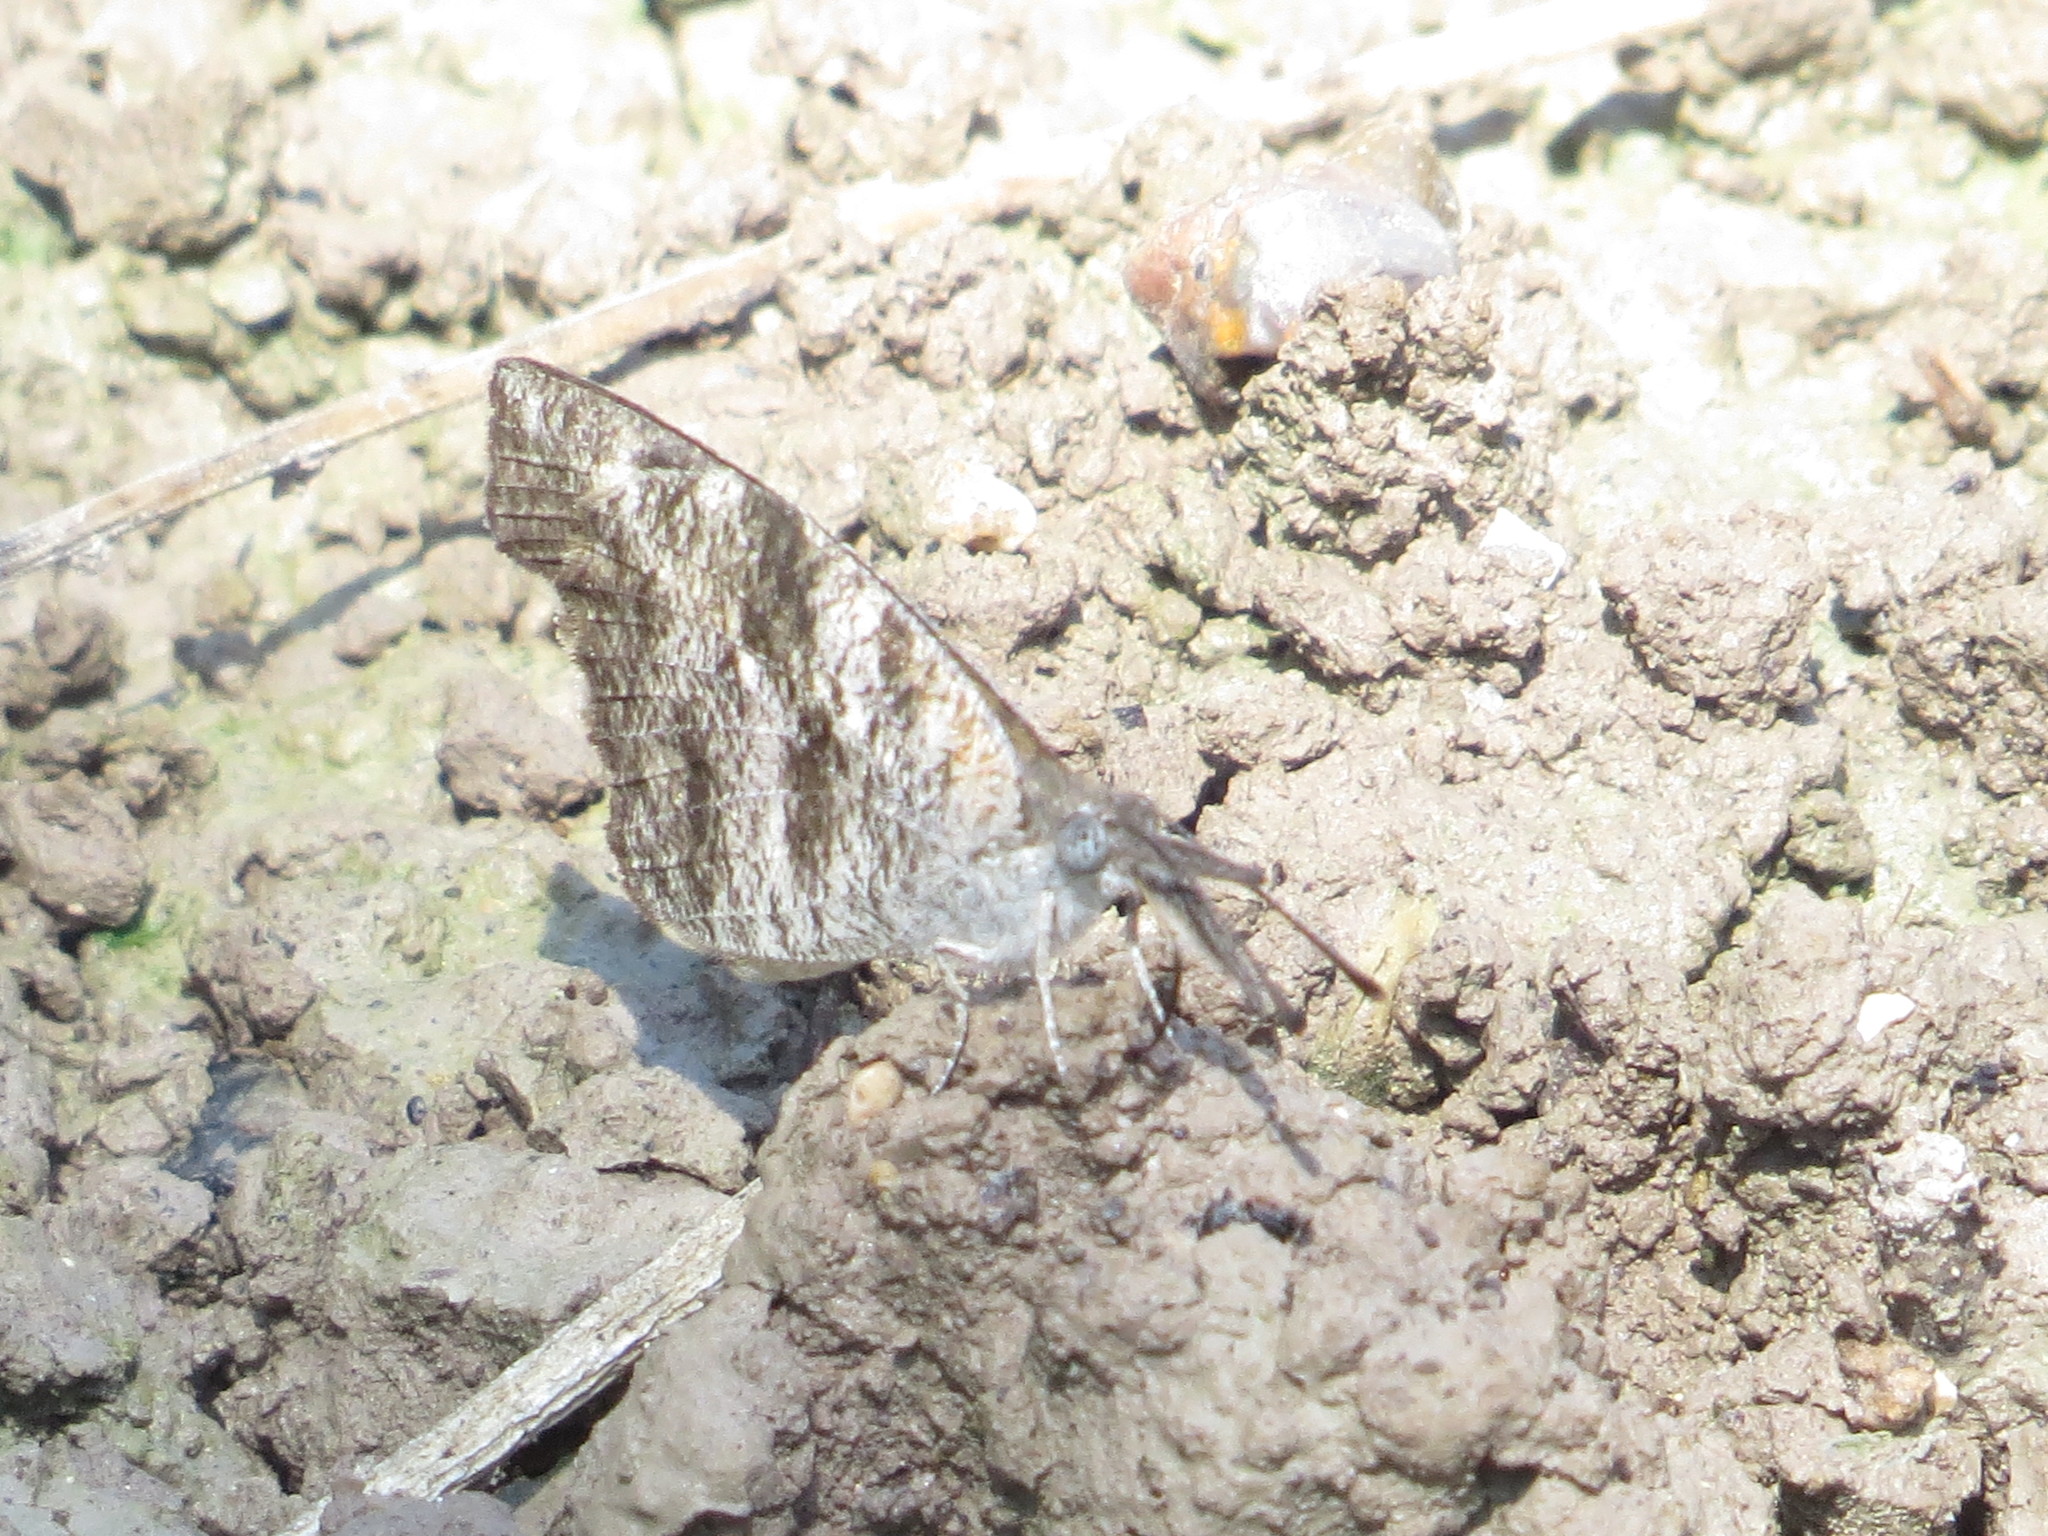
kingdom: Animalia
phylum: Arthropoda
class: Insecta
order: Lepidoptera
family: Nymphalidae
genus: Libytheana
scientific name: Libytheana carinenta
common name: American snout
